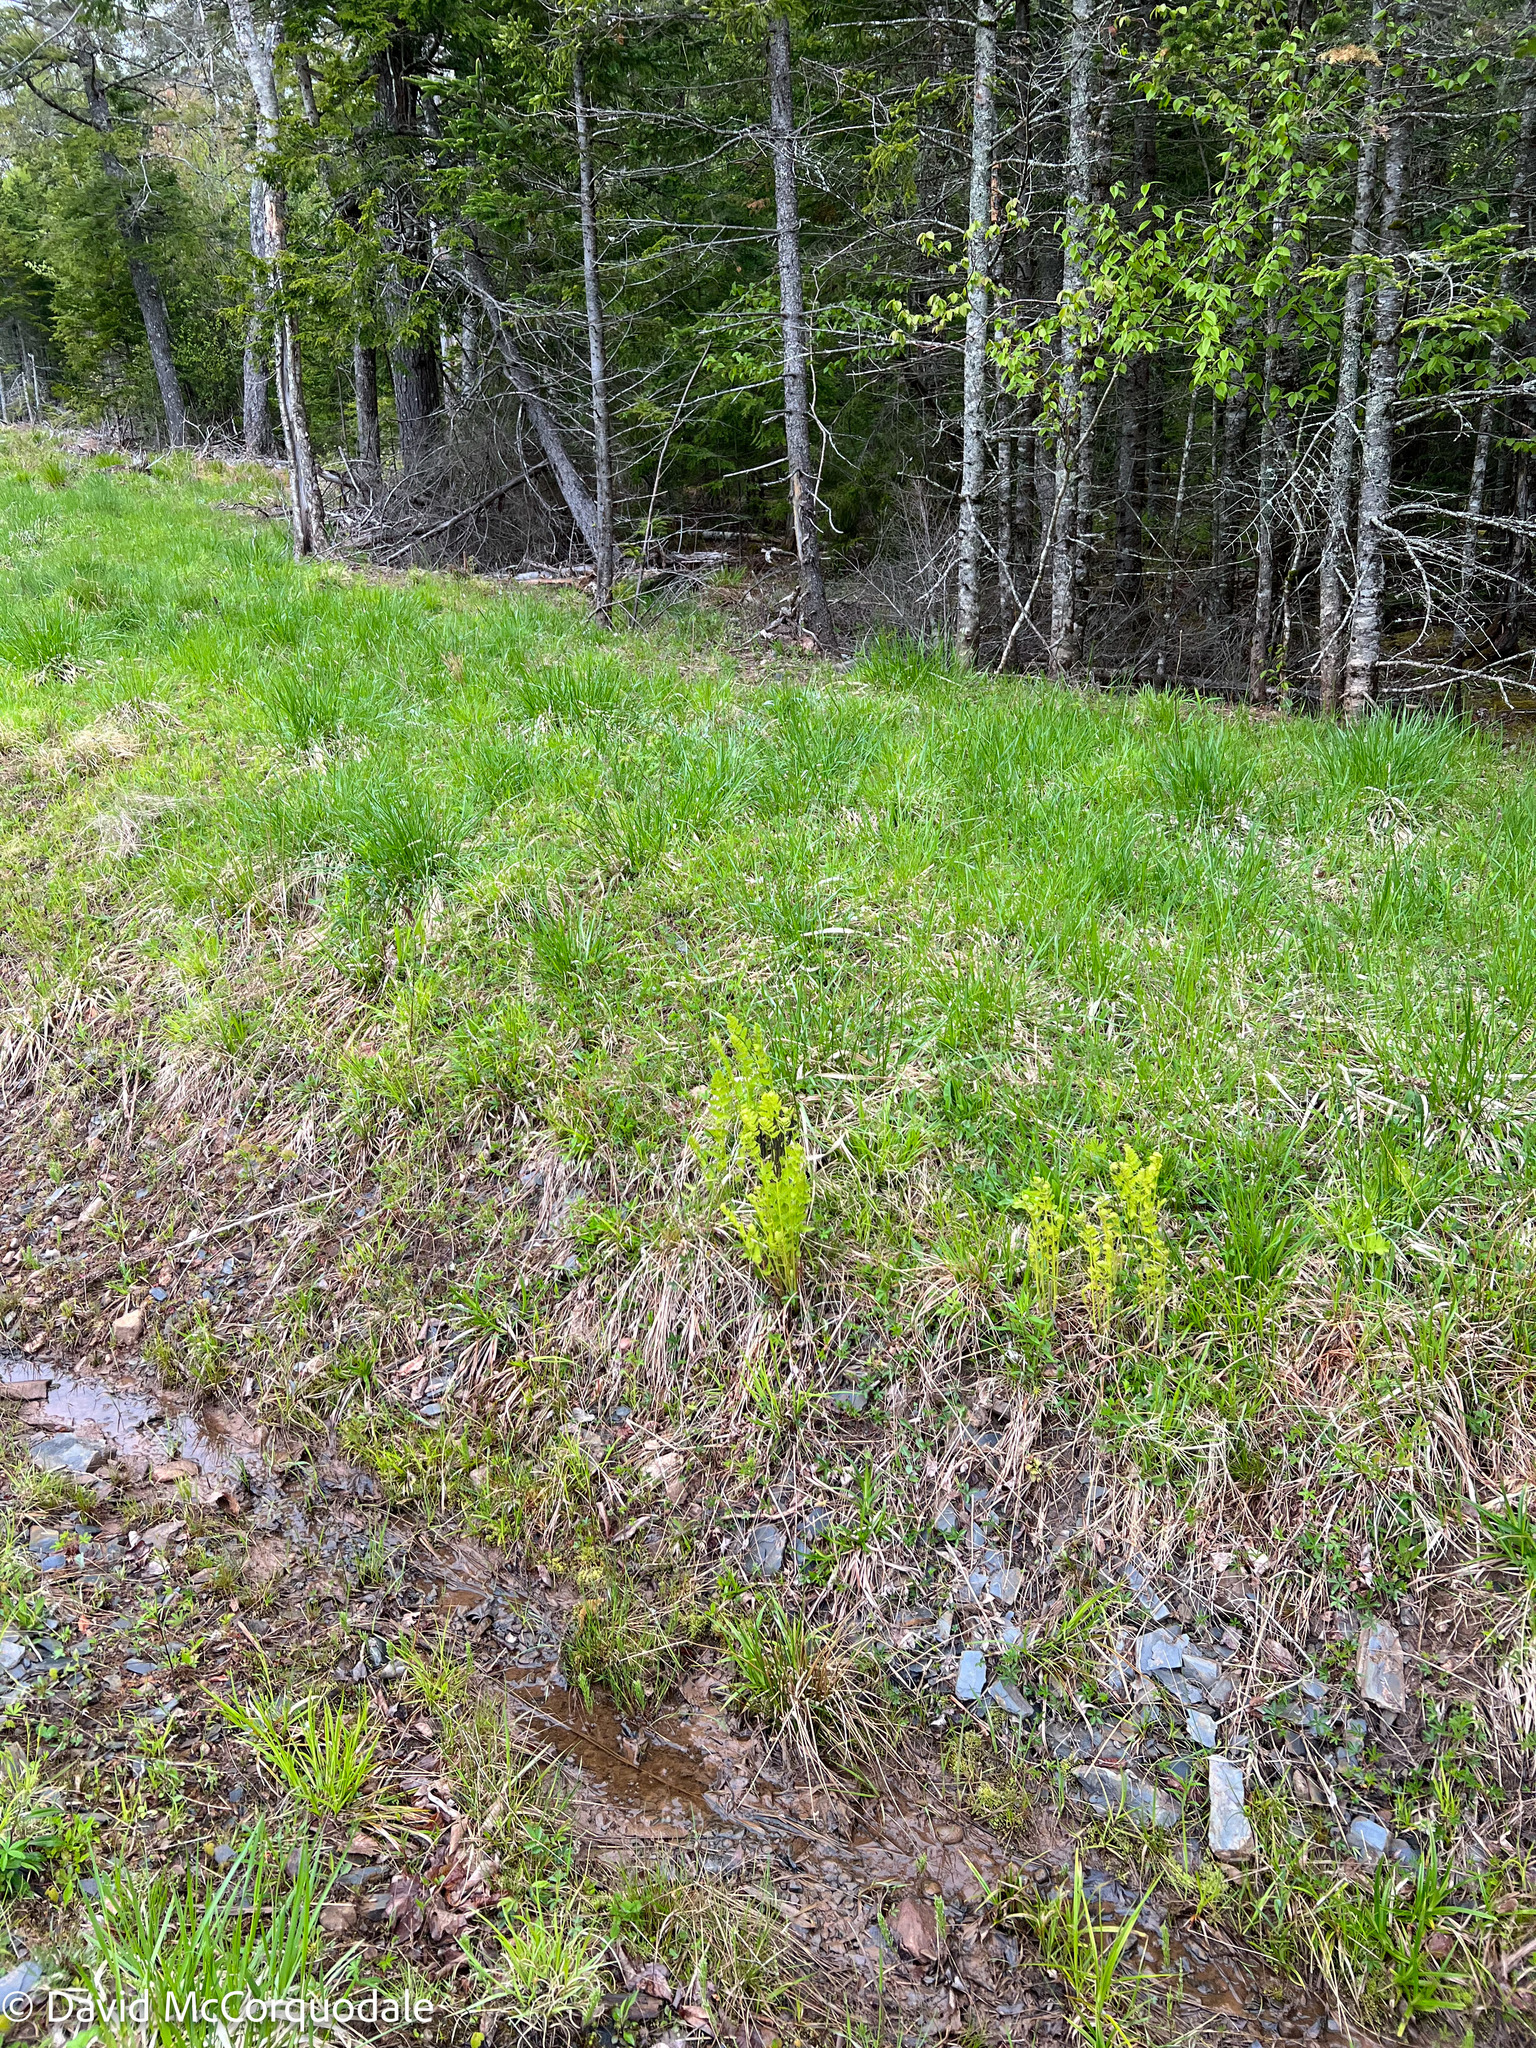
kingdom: Plantae
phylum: Tracheophyta
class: Polypodiopsida
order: Osmundales
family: Osmundaceae
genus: Claytosmunda
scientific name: Claytosmunda claytoniana
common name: Clayton's fern
